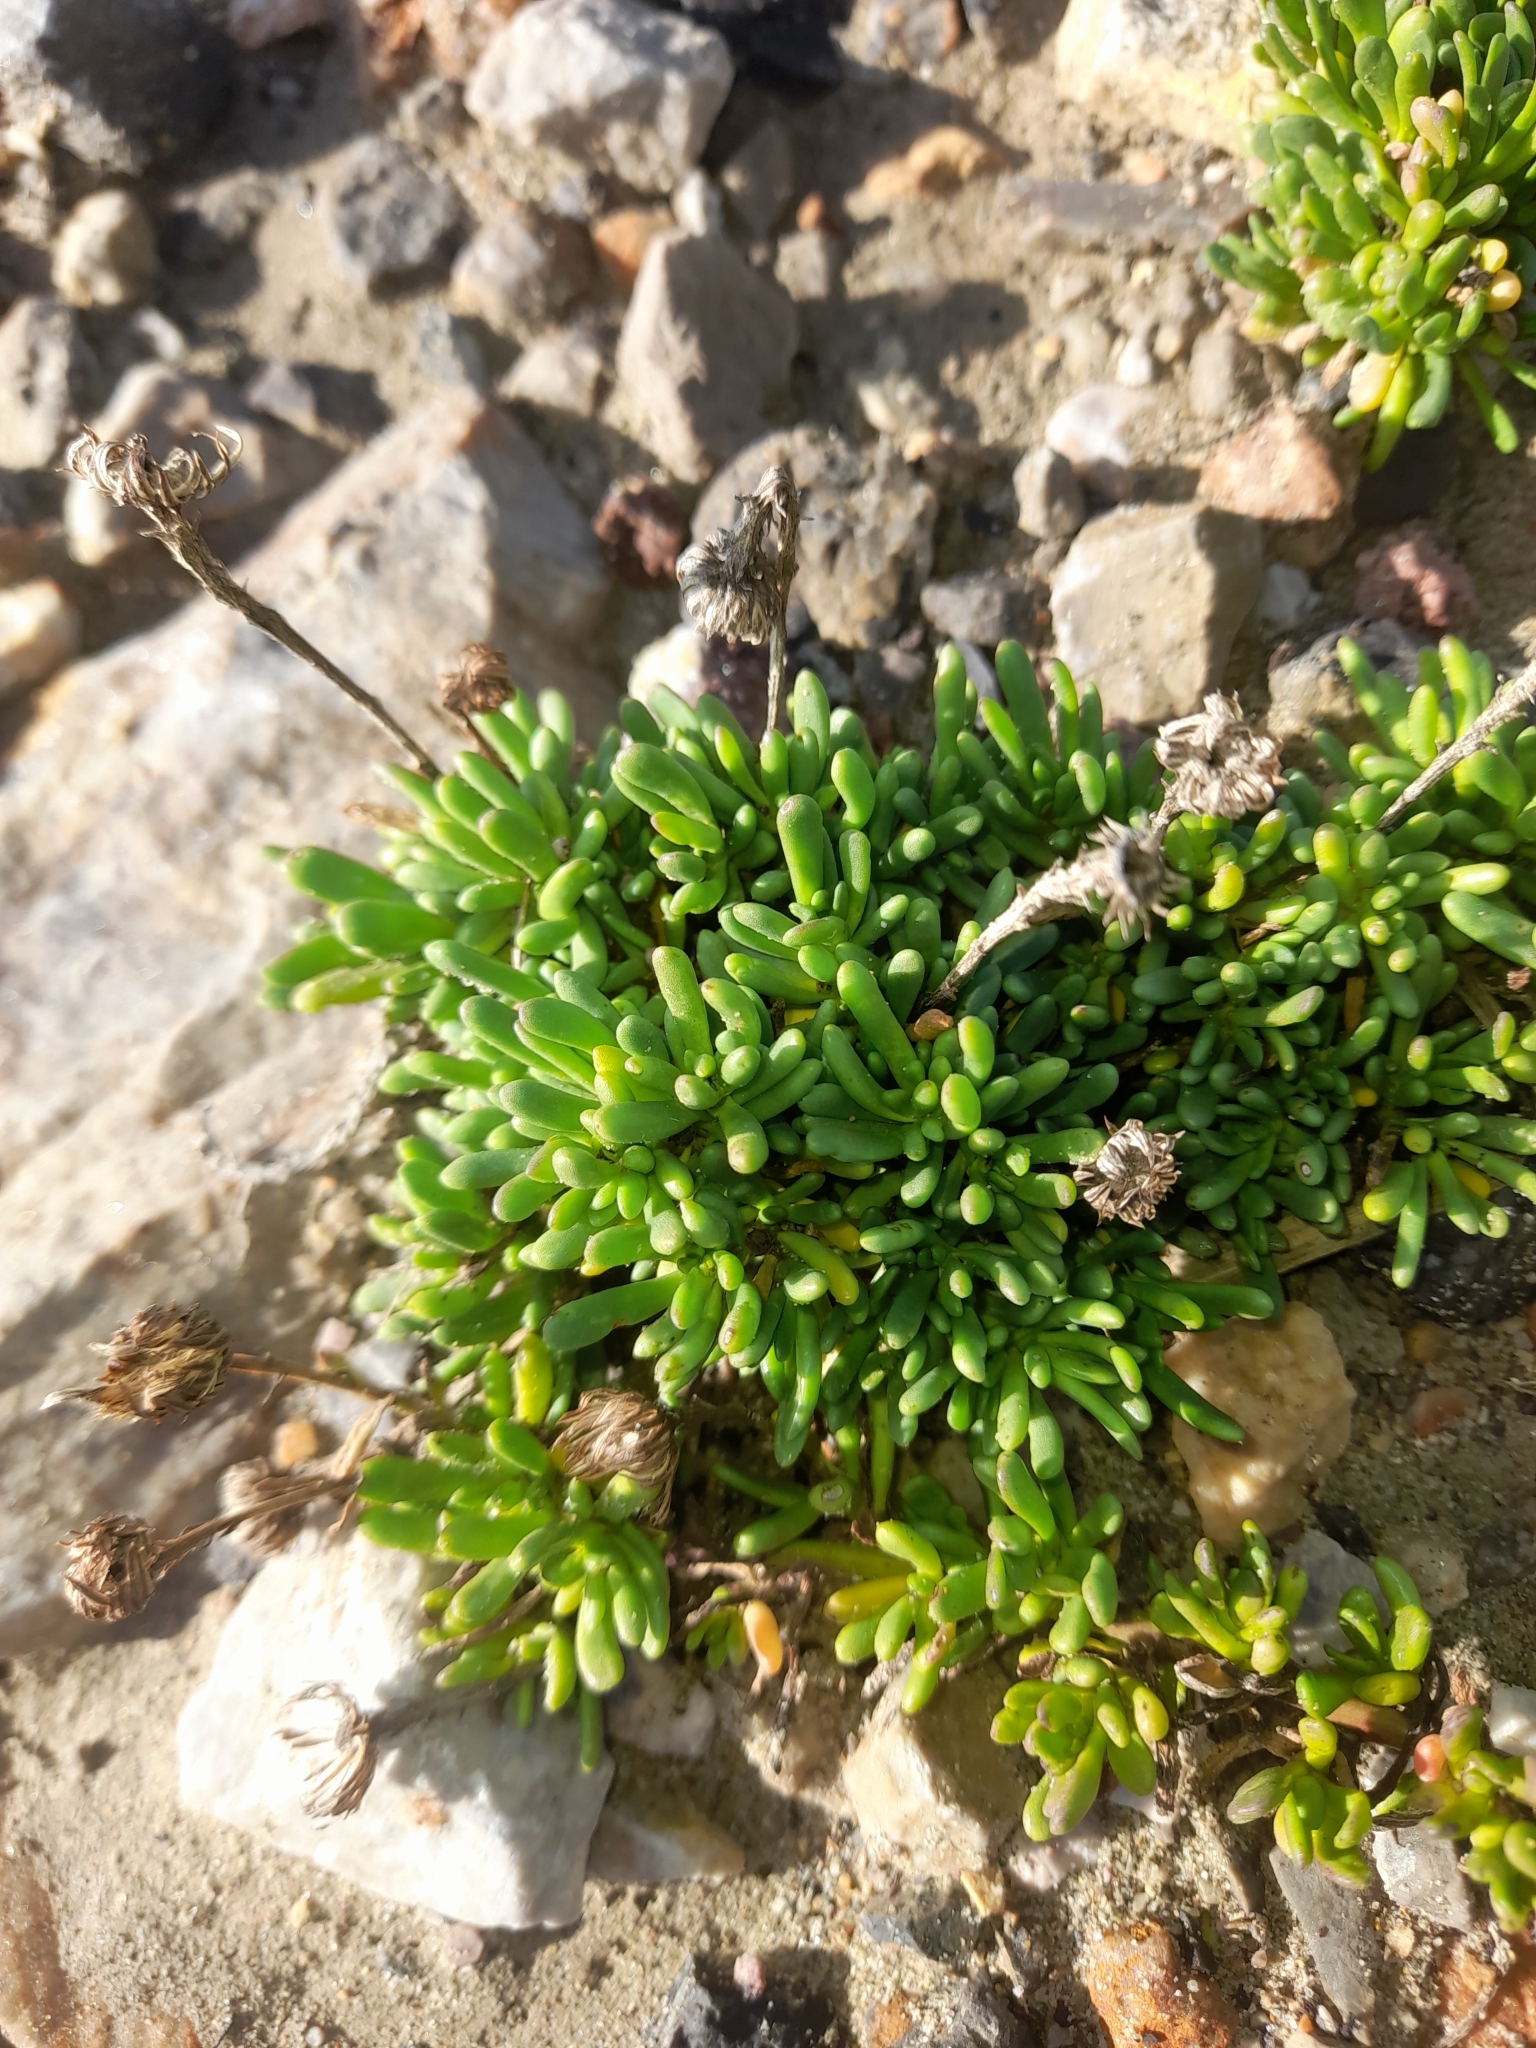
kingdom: Plantae
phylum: Tracheophyta
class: Magnoliopsida
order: Asterales
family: Asteraceae
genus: Limbarda
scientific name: Limbarda crithmoides
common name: Golden samphire
